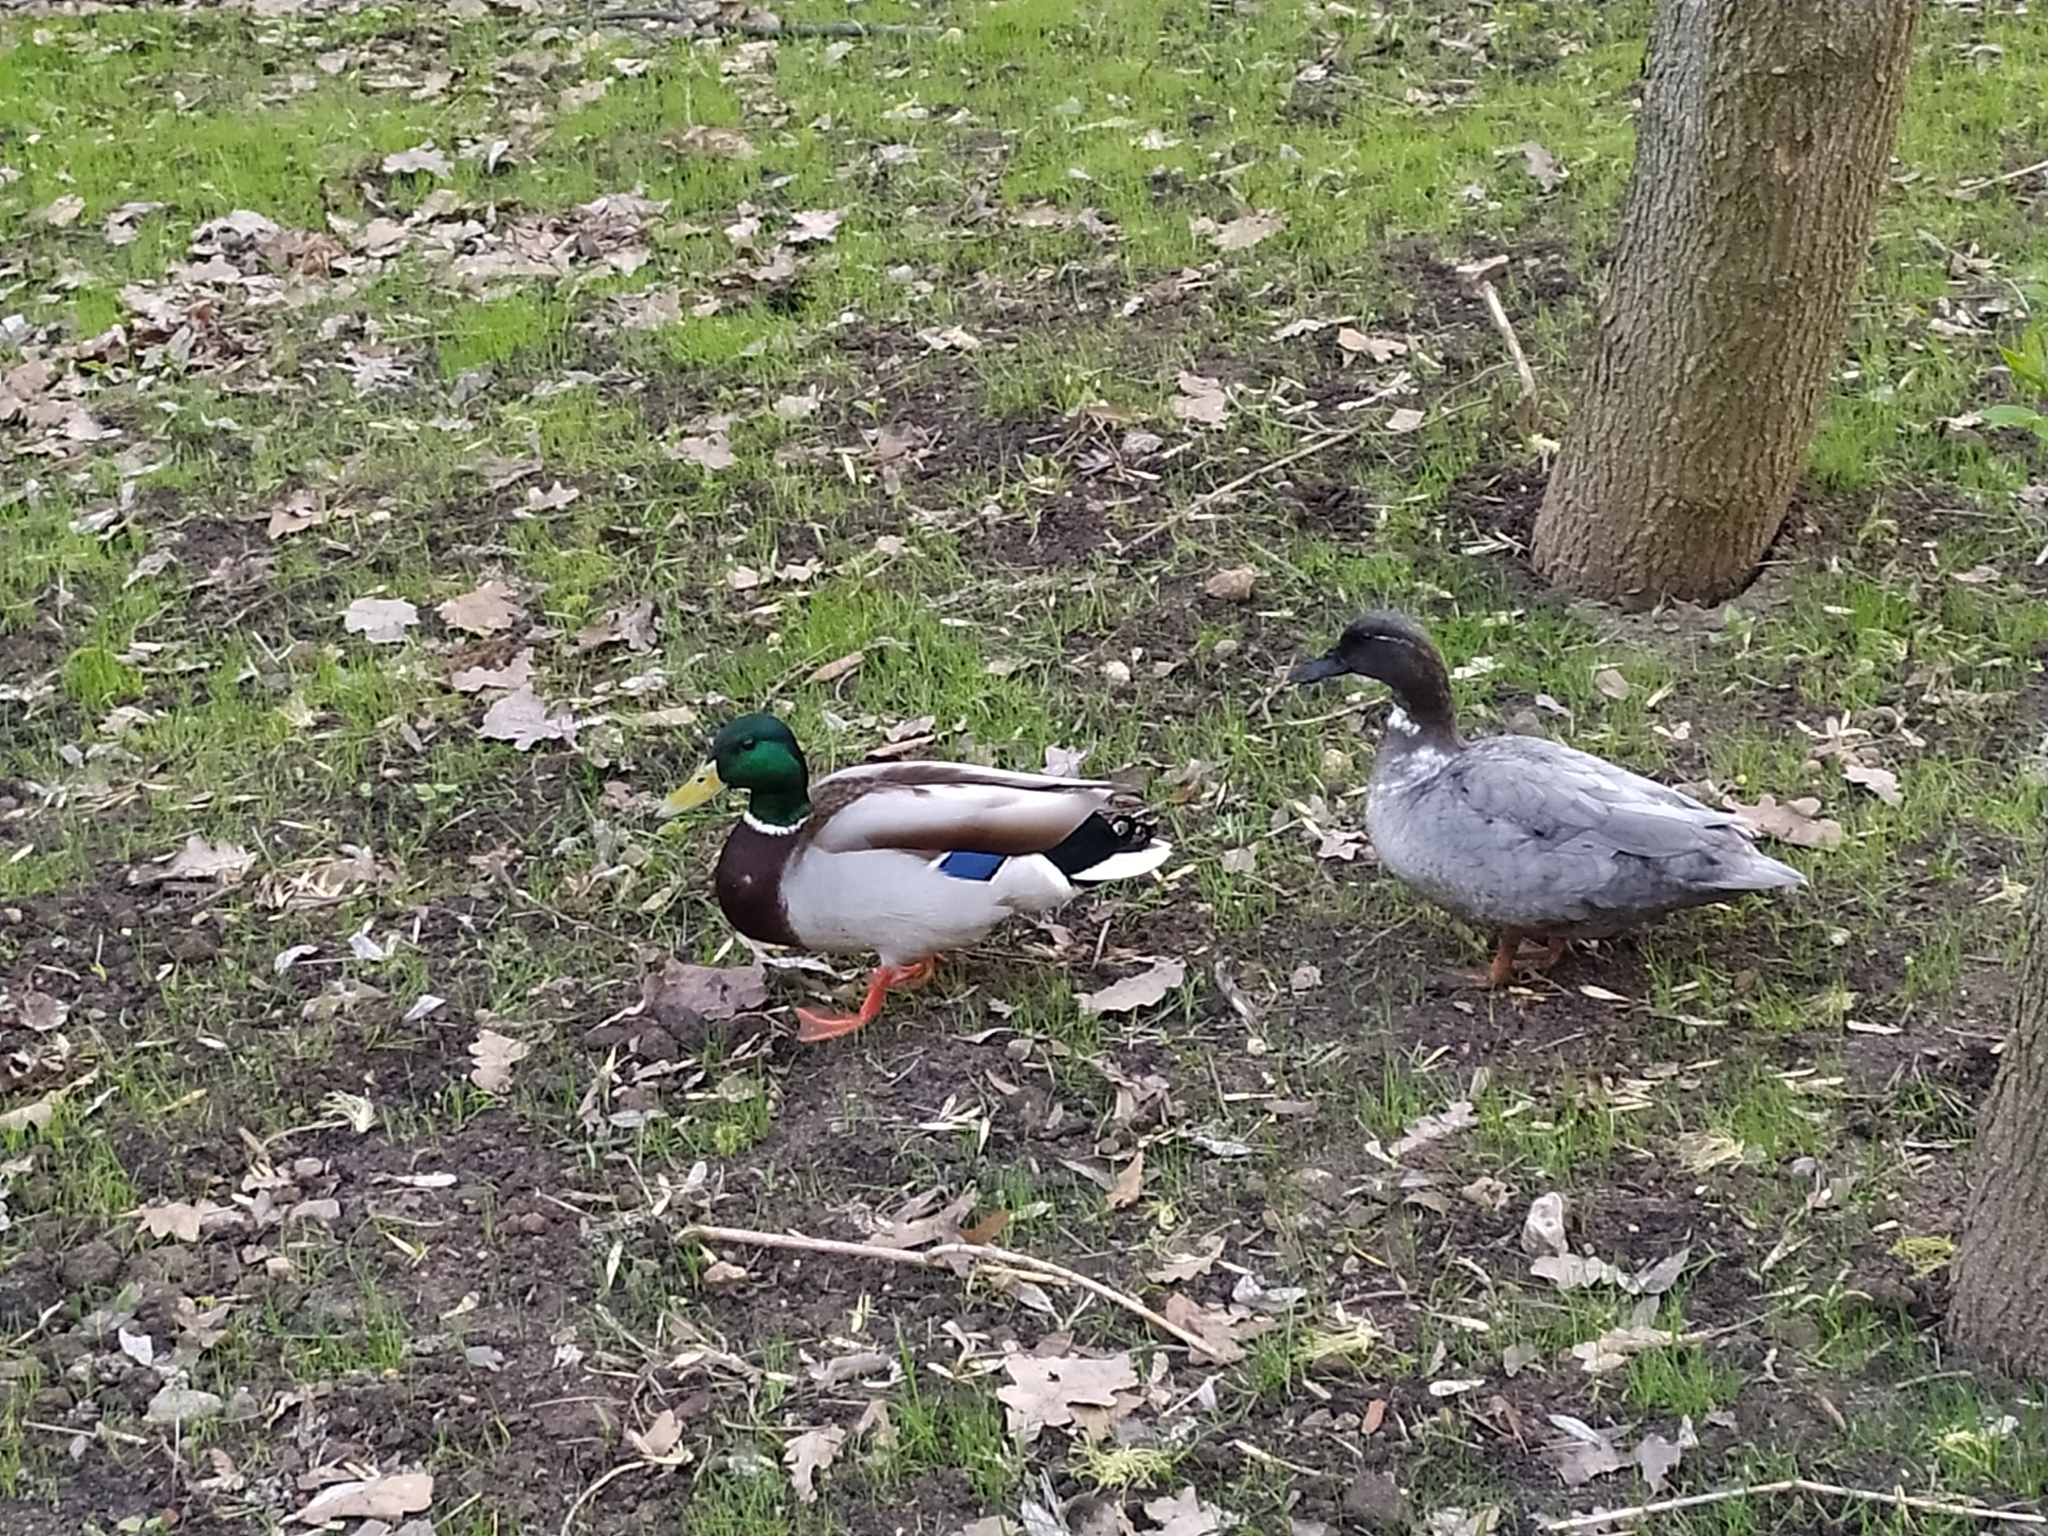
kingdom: Animalia
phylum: Chordata
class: Aves
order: Anseriformes
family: Anatidae
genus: Anas
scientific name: Anas platyrhynchos
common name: Mallard
